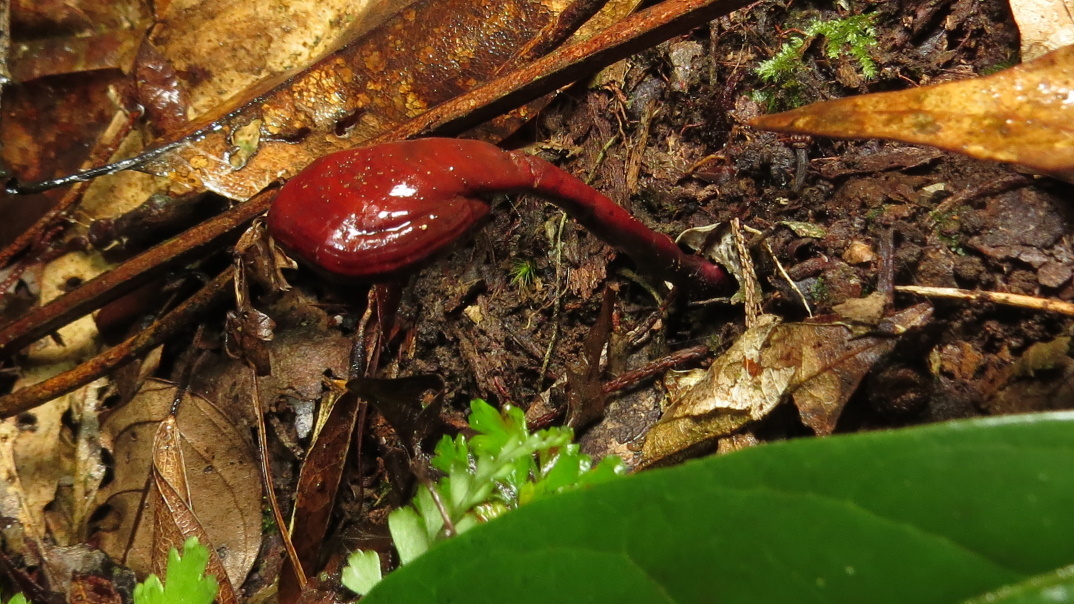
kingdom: Fungi
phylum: Basidiomycota
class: Agaricomycetes
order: Polyporales
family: Polyporaceae
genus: Ganoderma
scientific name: Ganoderma lucidum
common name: Lacquered bracket
